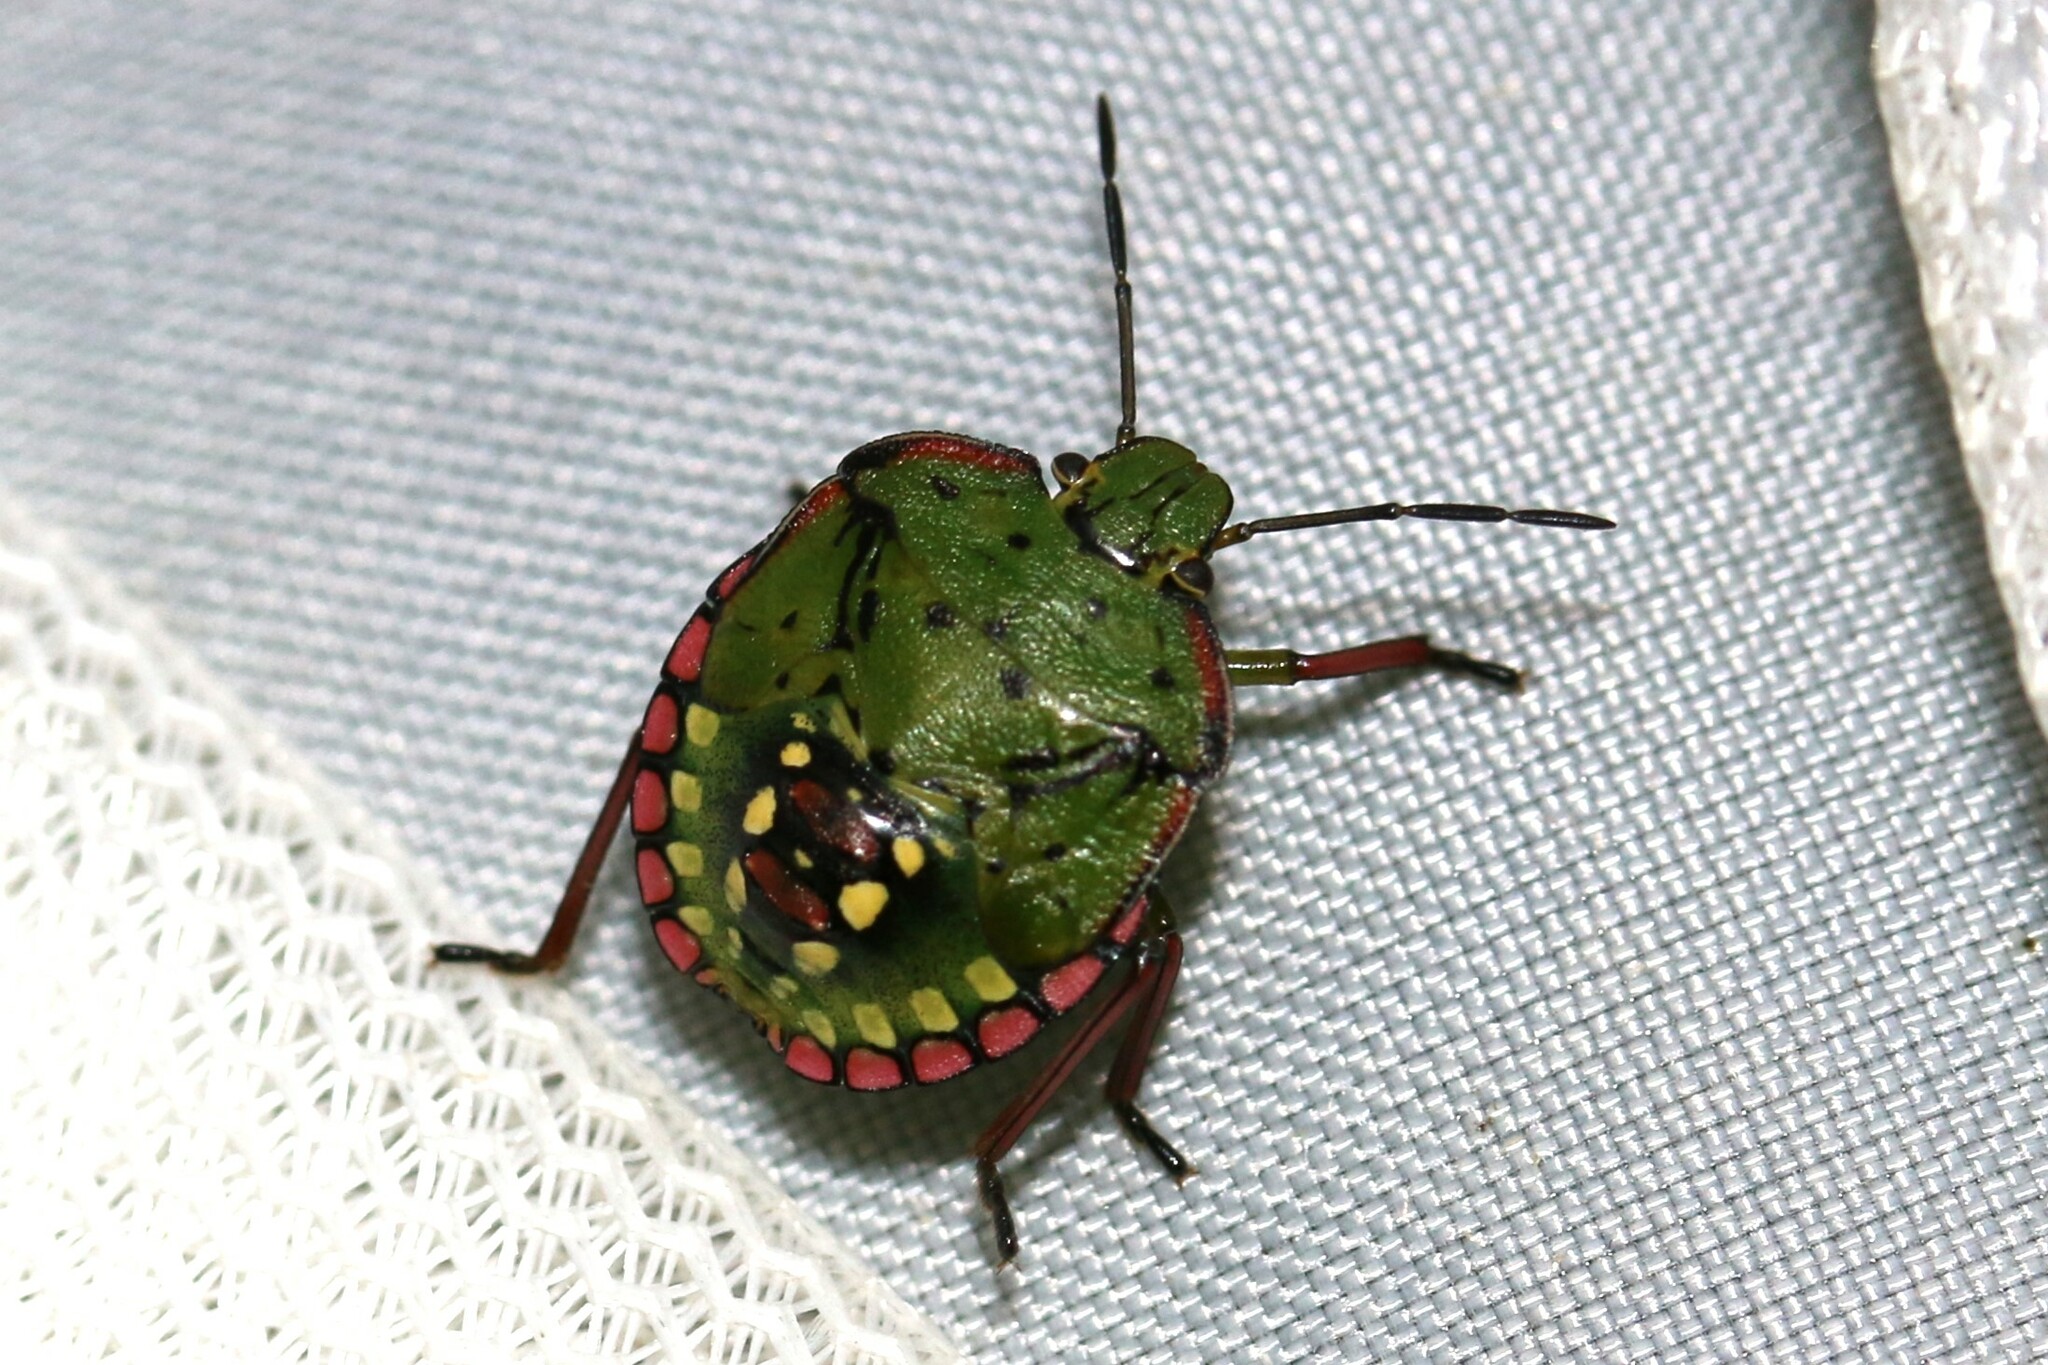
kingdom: Animalia
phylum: Arthropoda
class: Insecta
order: Hemiptera
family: Pentatomidae
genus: Nezara
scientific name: Nezara viridula
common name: Southern green stink bug
